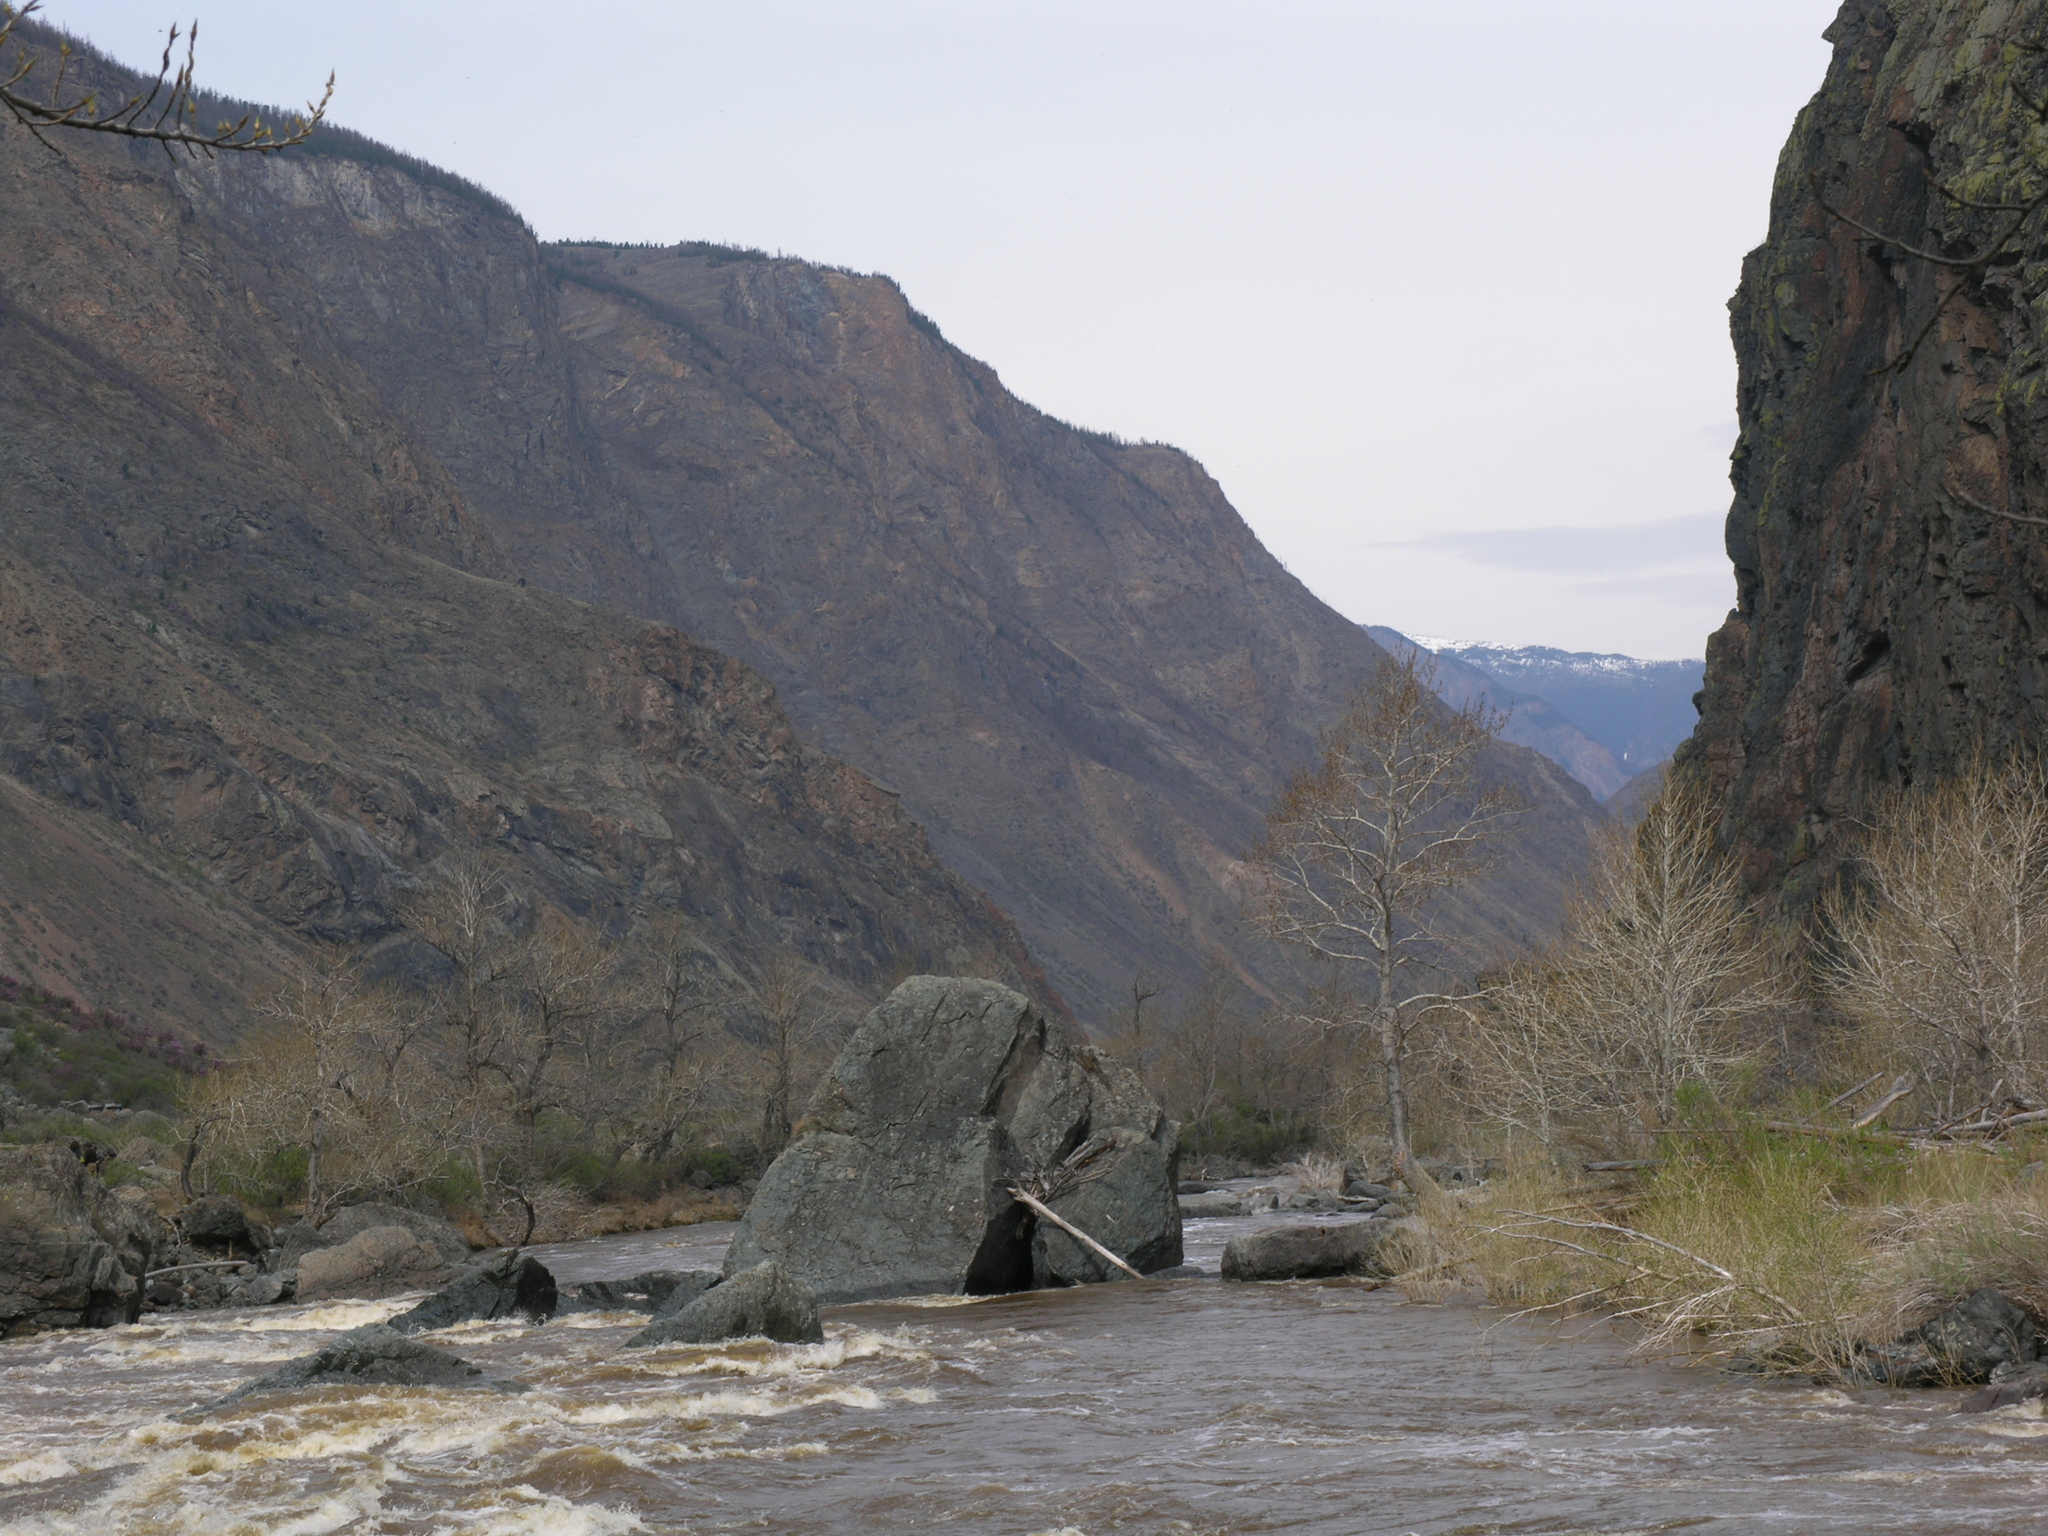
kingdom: Plantae
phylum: Tracheophyta
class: Magnoliopsida
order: Malpighiales
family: Salicaceae
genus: Populus
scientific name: Populus laurifolia
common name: Laurel-leaf poplar
